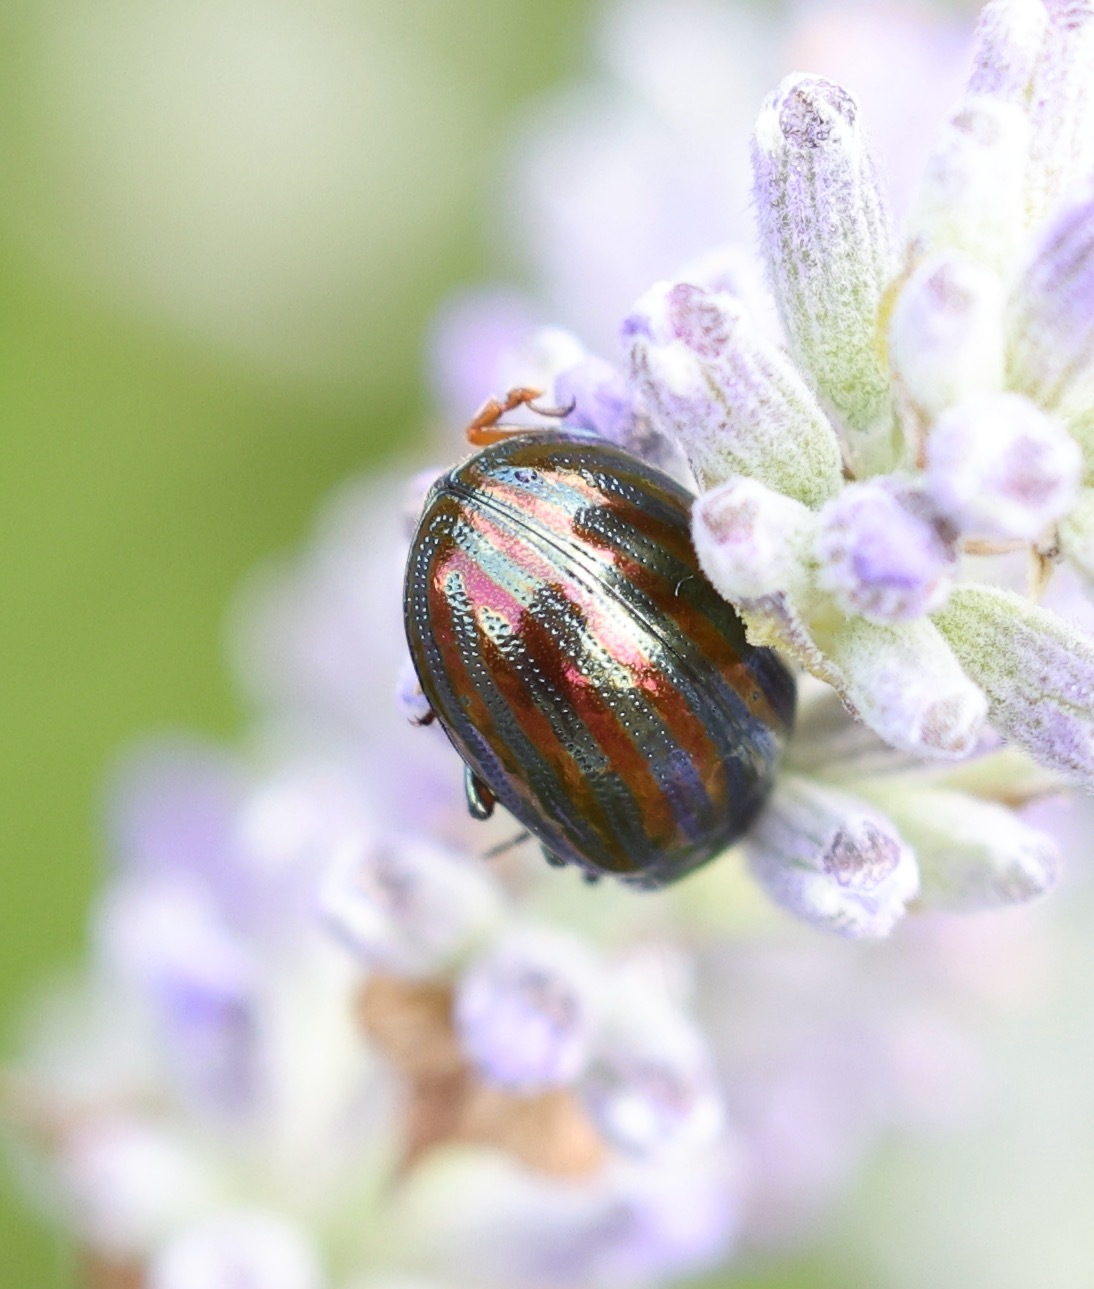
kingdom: Animalia
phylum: Arthropoda
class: Insecta
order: Coleoptera
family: Chrysomelidae
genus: Chrysolina
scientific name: Chrysolina americana
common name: Rosemary beetle
